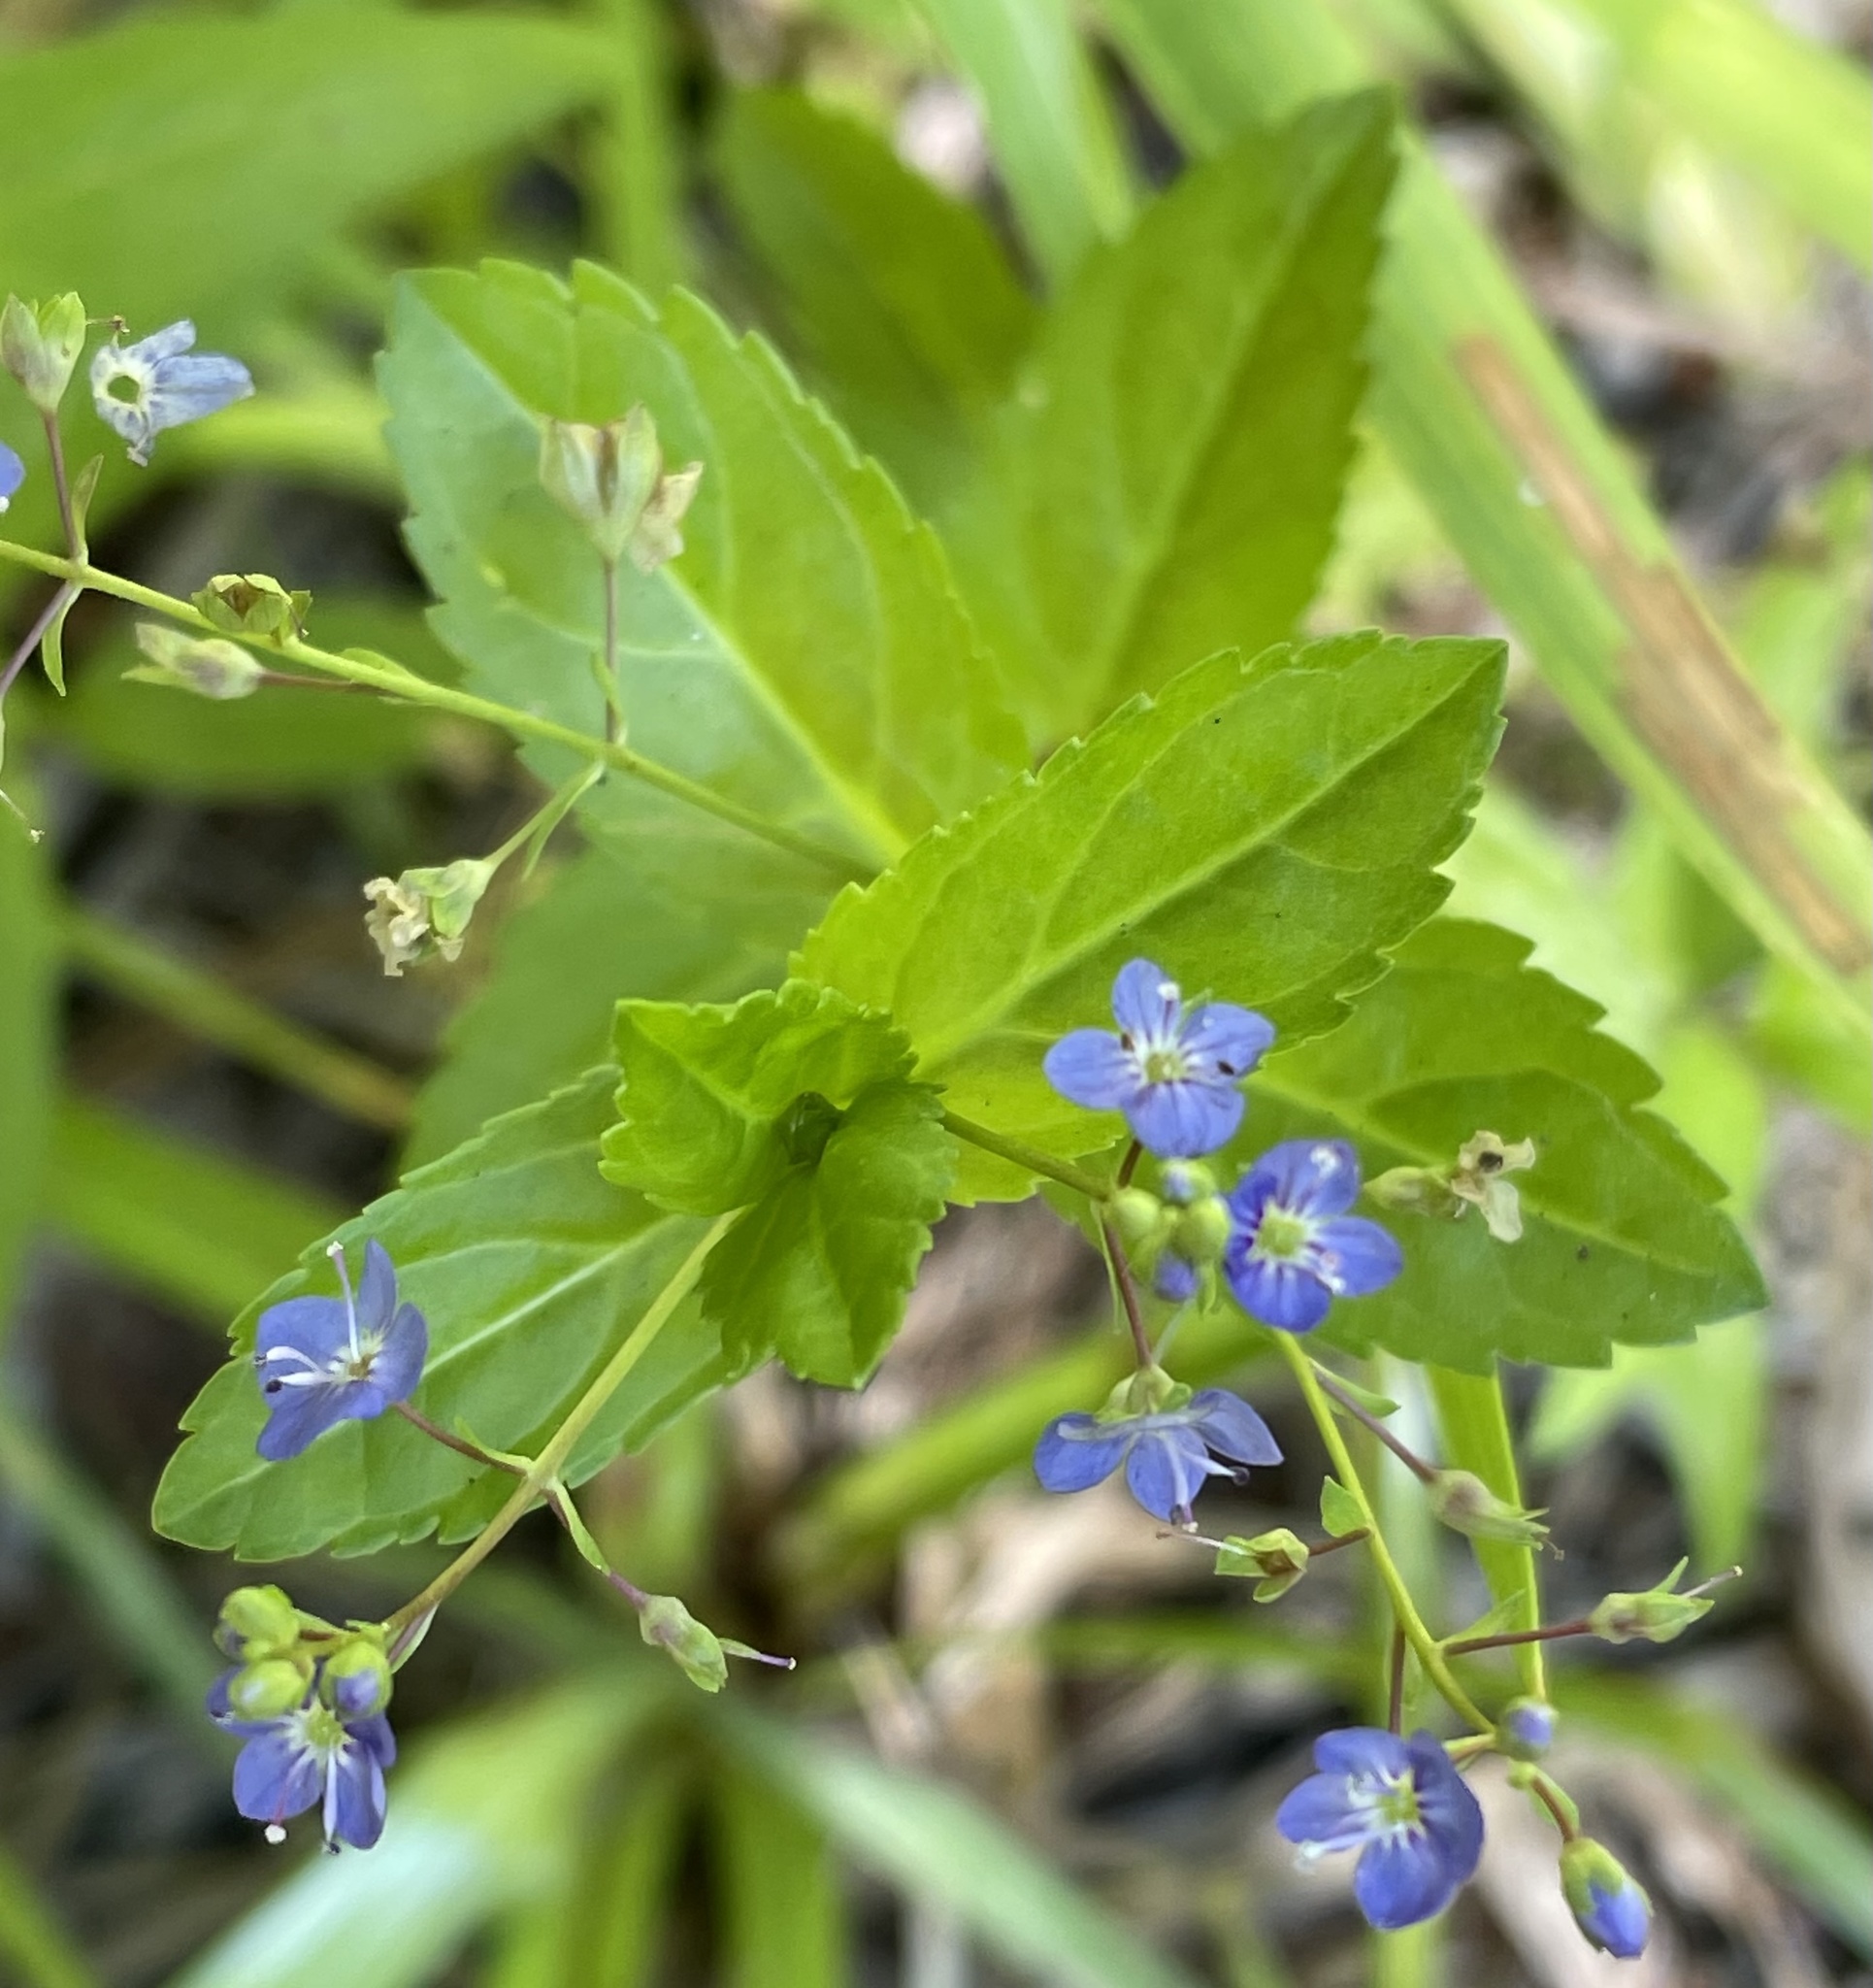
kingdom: Plantae
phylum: Tracheophyta
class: Magnoliopsida
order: Lamiales
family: Plantaginaceae
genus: Veronica
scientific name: Veronica americana
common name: American brooklime
